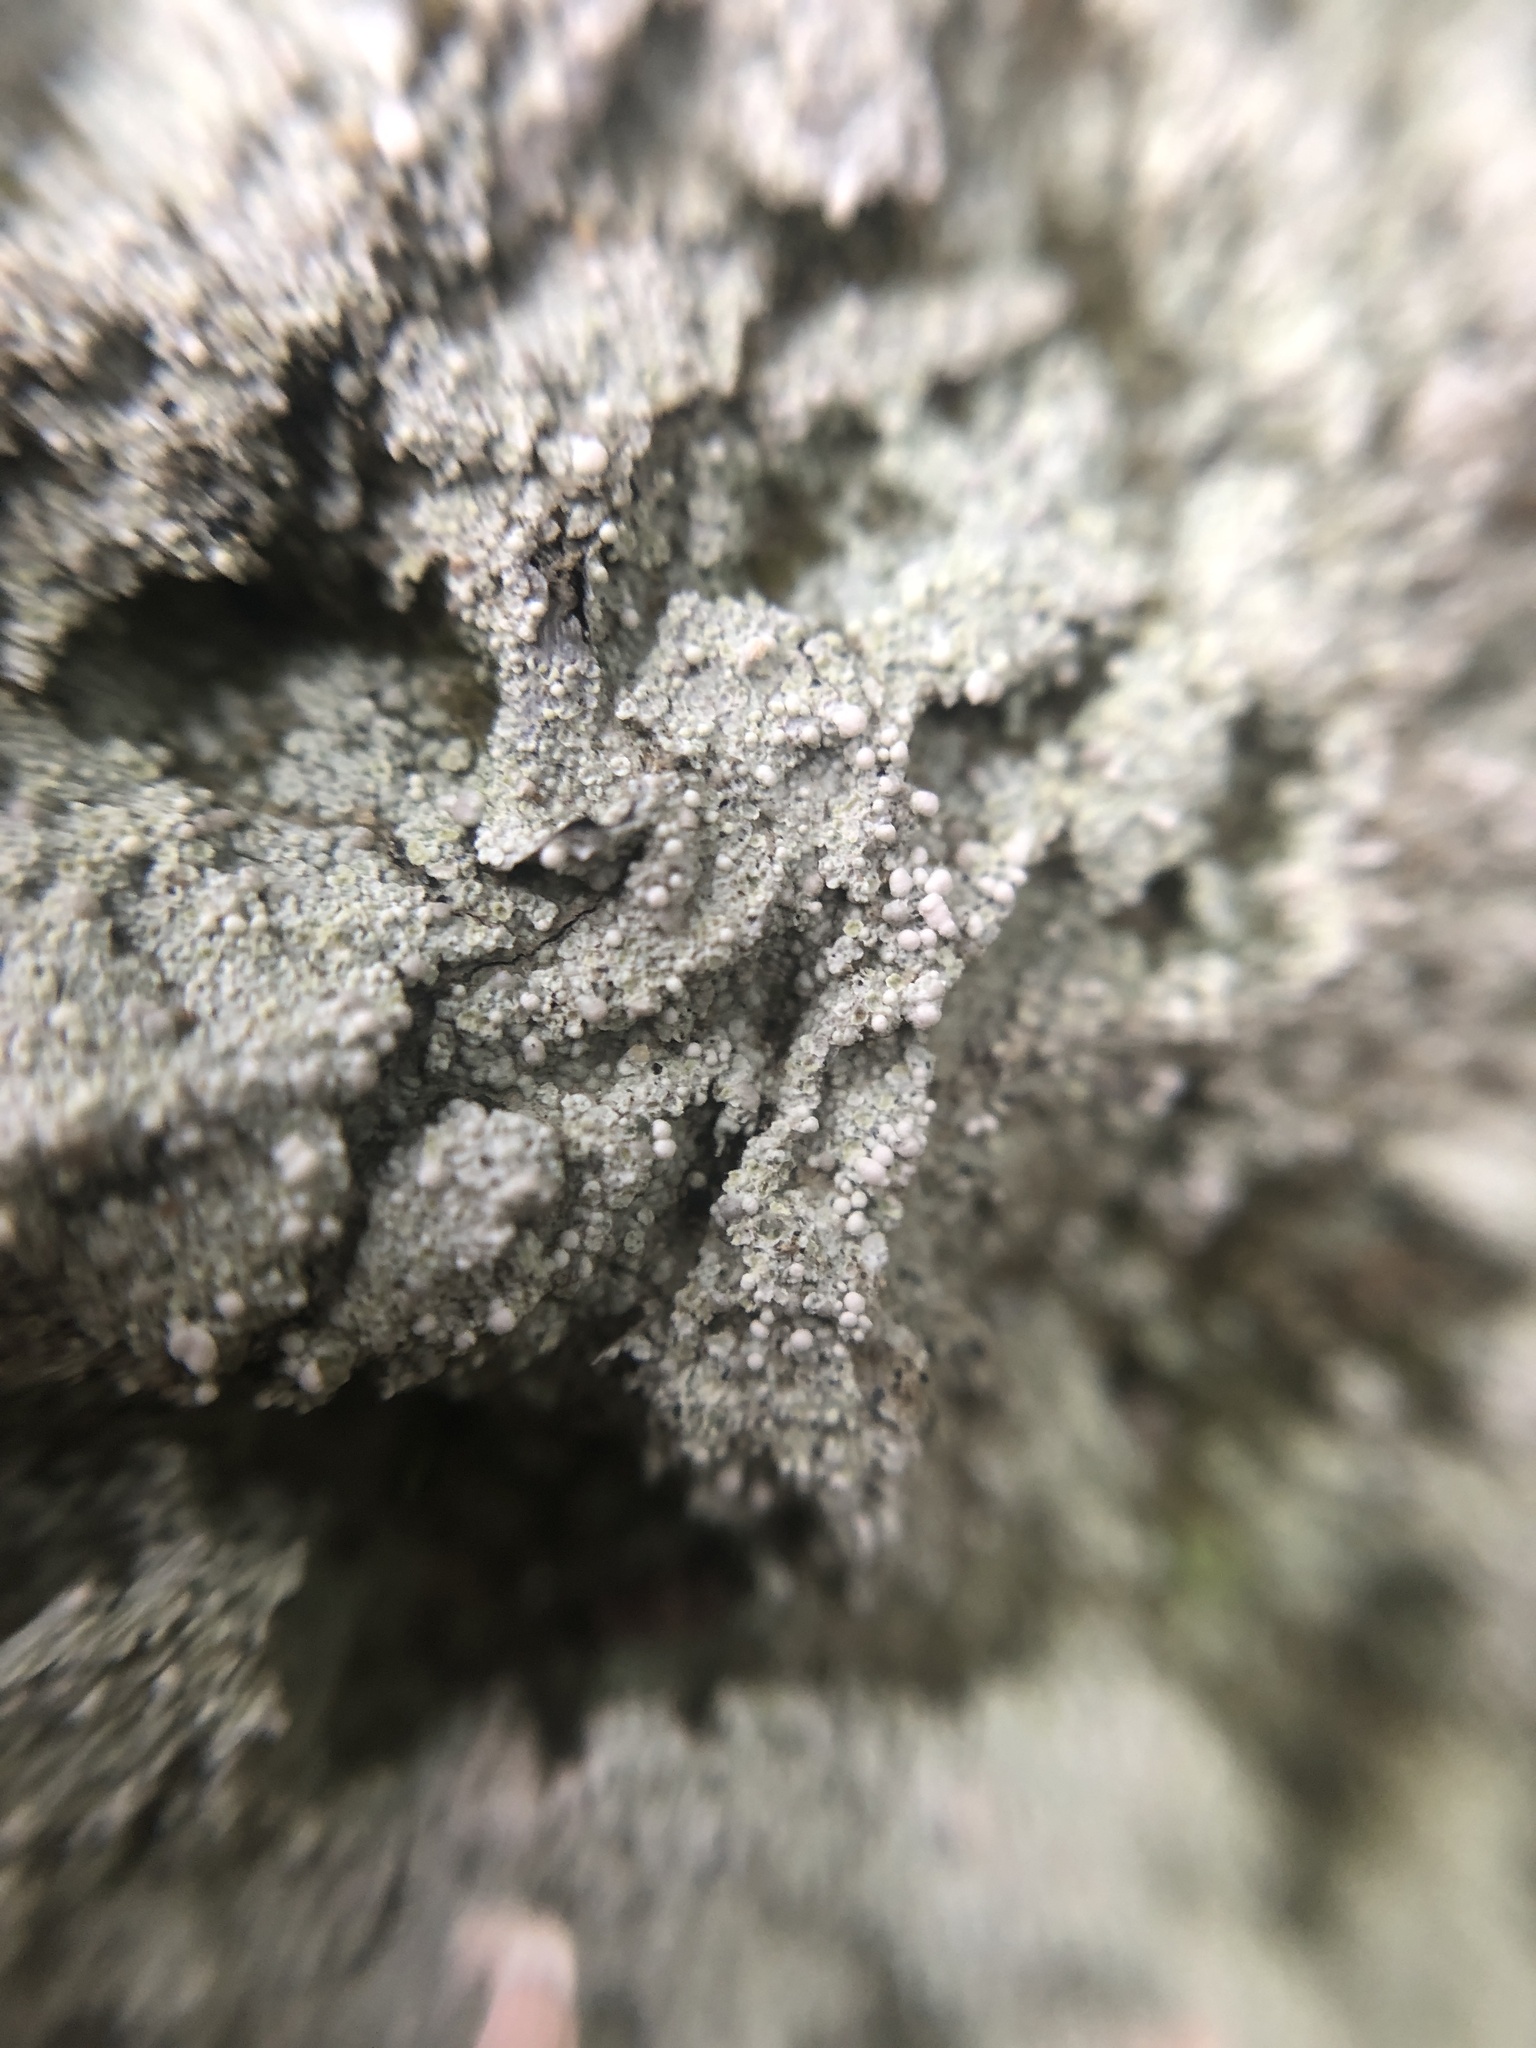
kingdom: Fungi
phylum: Ascomycota
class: Lecanoromycetes
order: Pertusariales
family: Icmadophilaceae
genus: Dibaeis
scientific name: Dibaeis baeomyces
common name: Pink earth lichen
